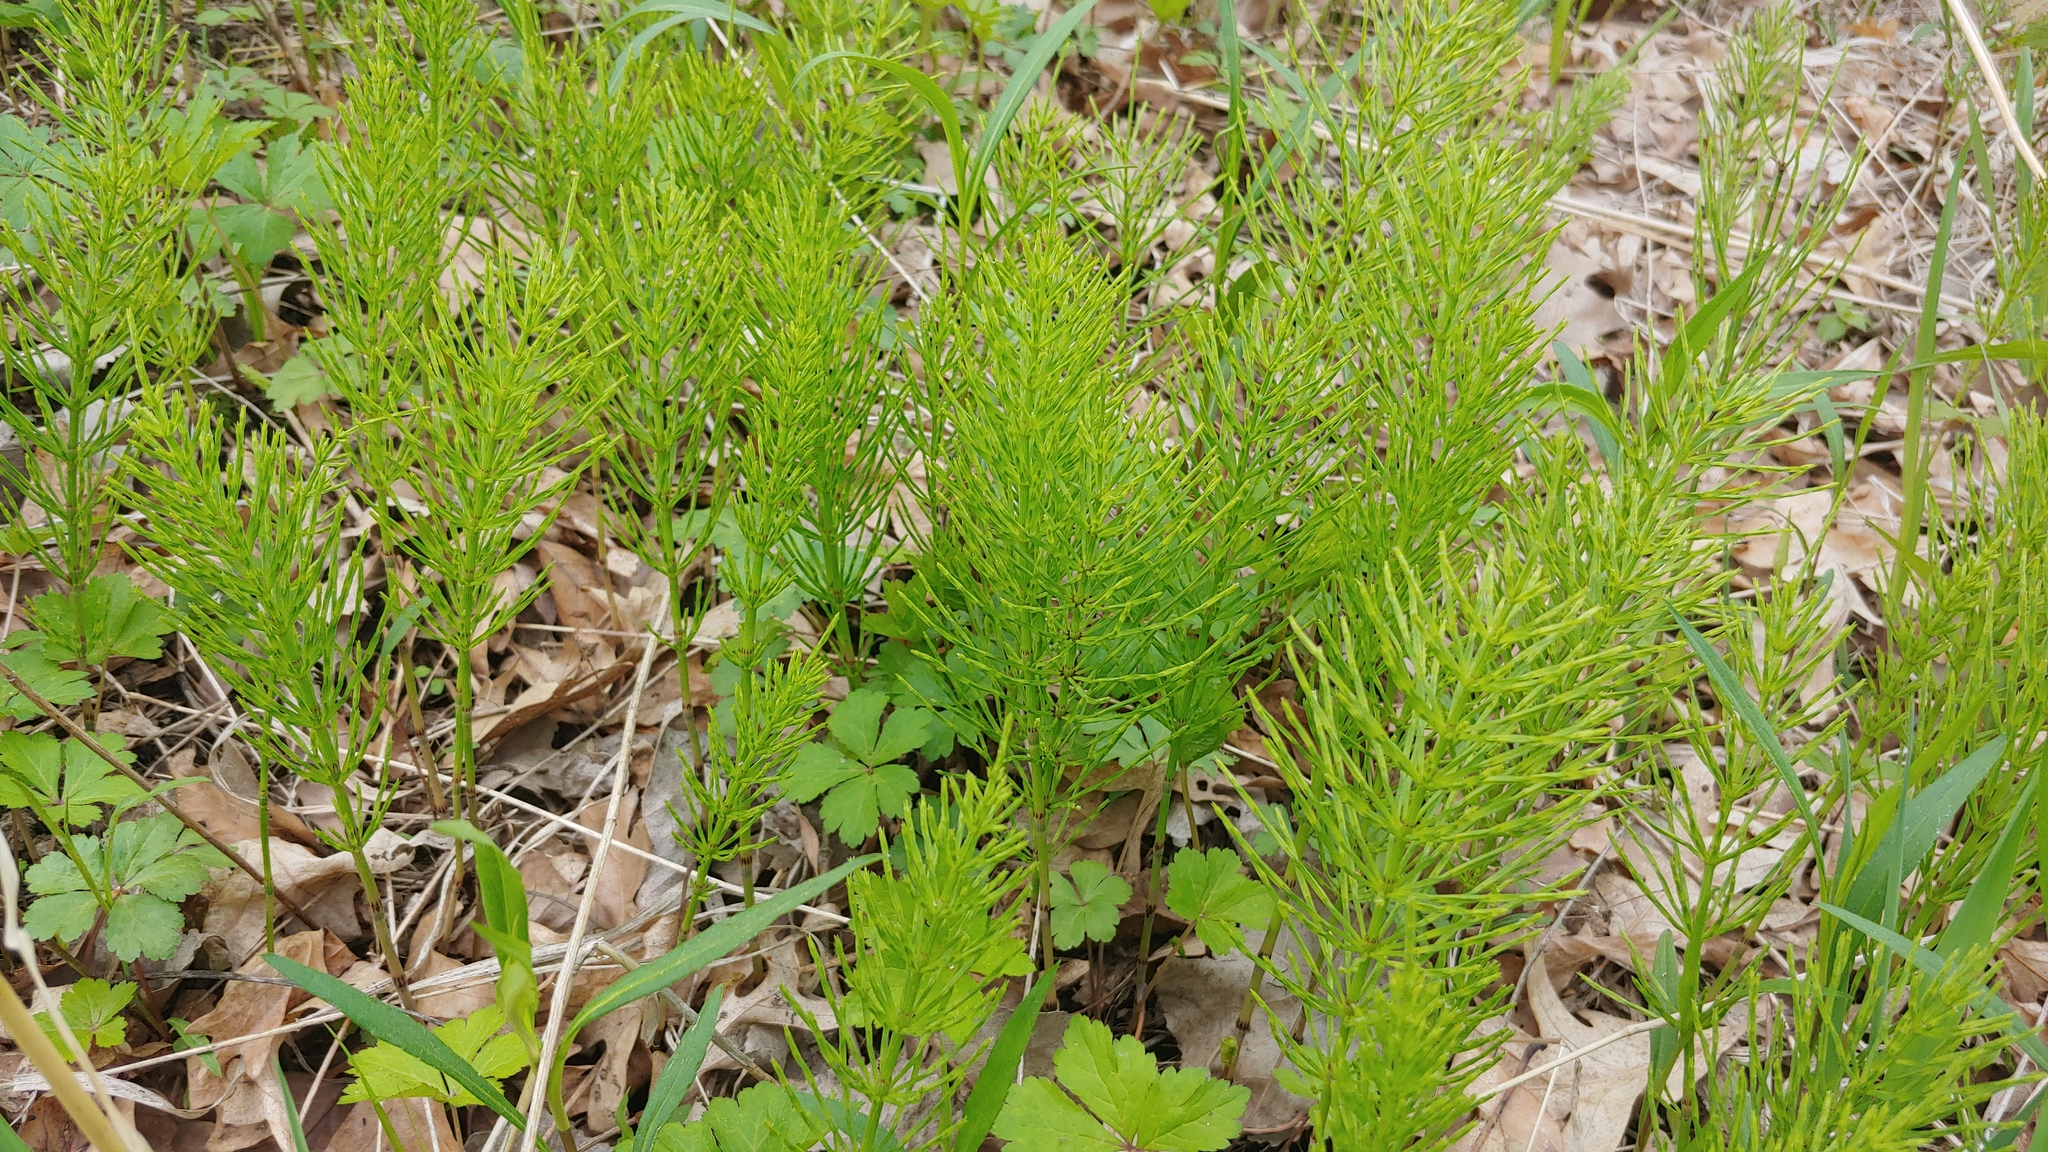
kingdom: Plantae
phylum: Tracheophyta
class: Polypodiopsida
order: Equisetales
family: Equisetaceae
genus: Equisetum
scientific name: Equisetum arvense
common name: Field horsetail
